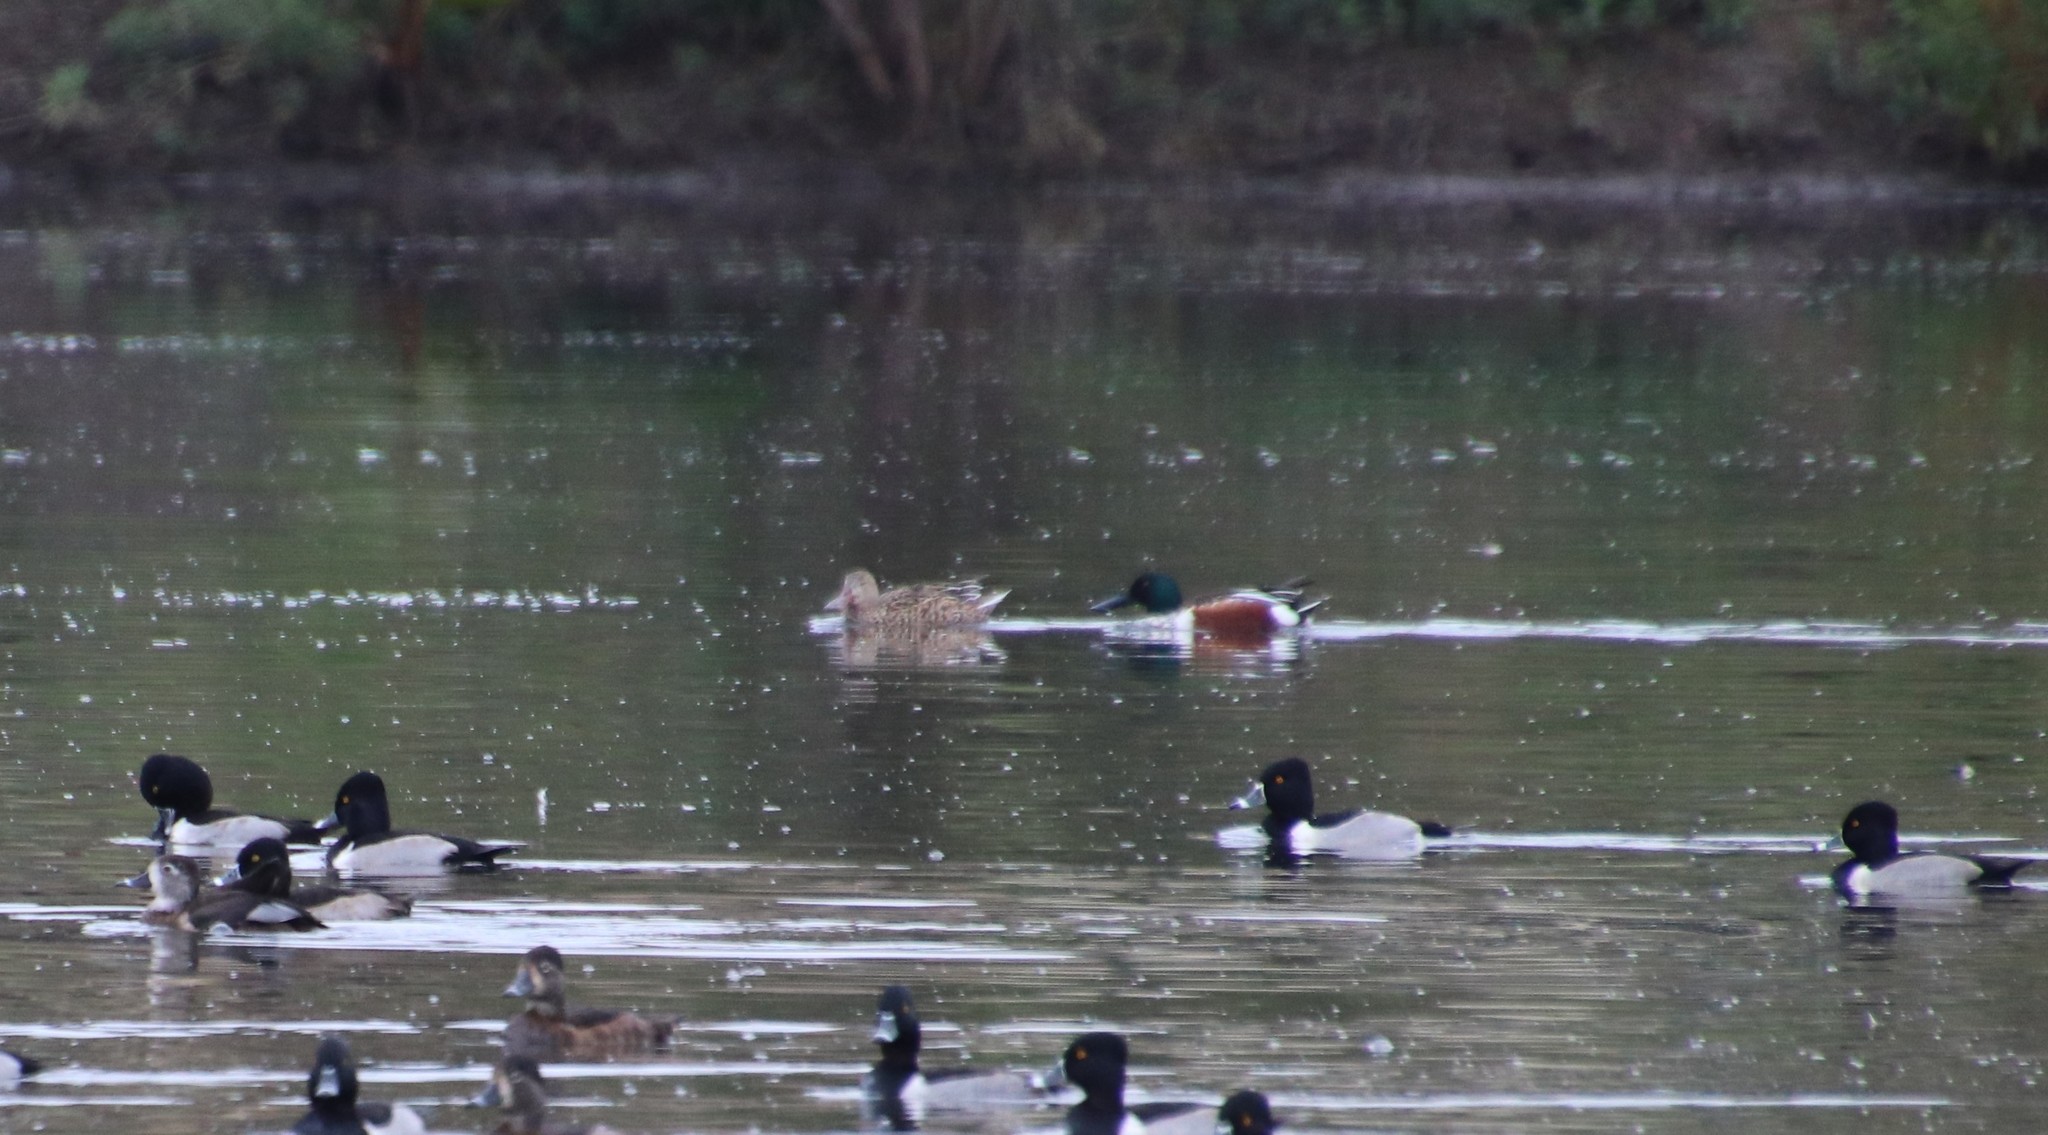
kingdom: Animalia
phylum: Chordata
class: Aves
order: Anseriformes
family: Anatidae
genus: Spatula
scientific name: Spatula clypeata
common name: Northern shoveler
